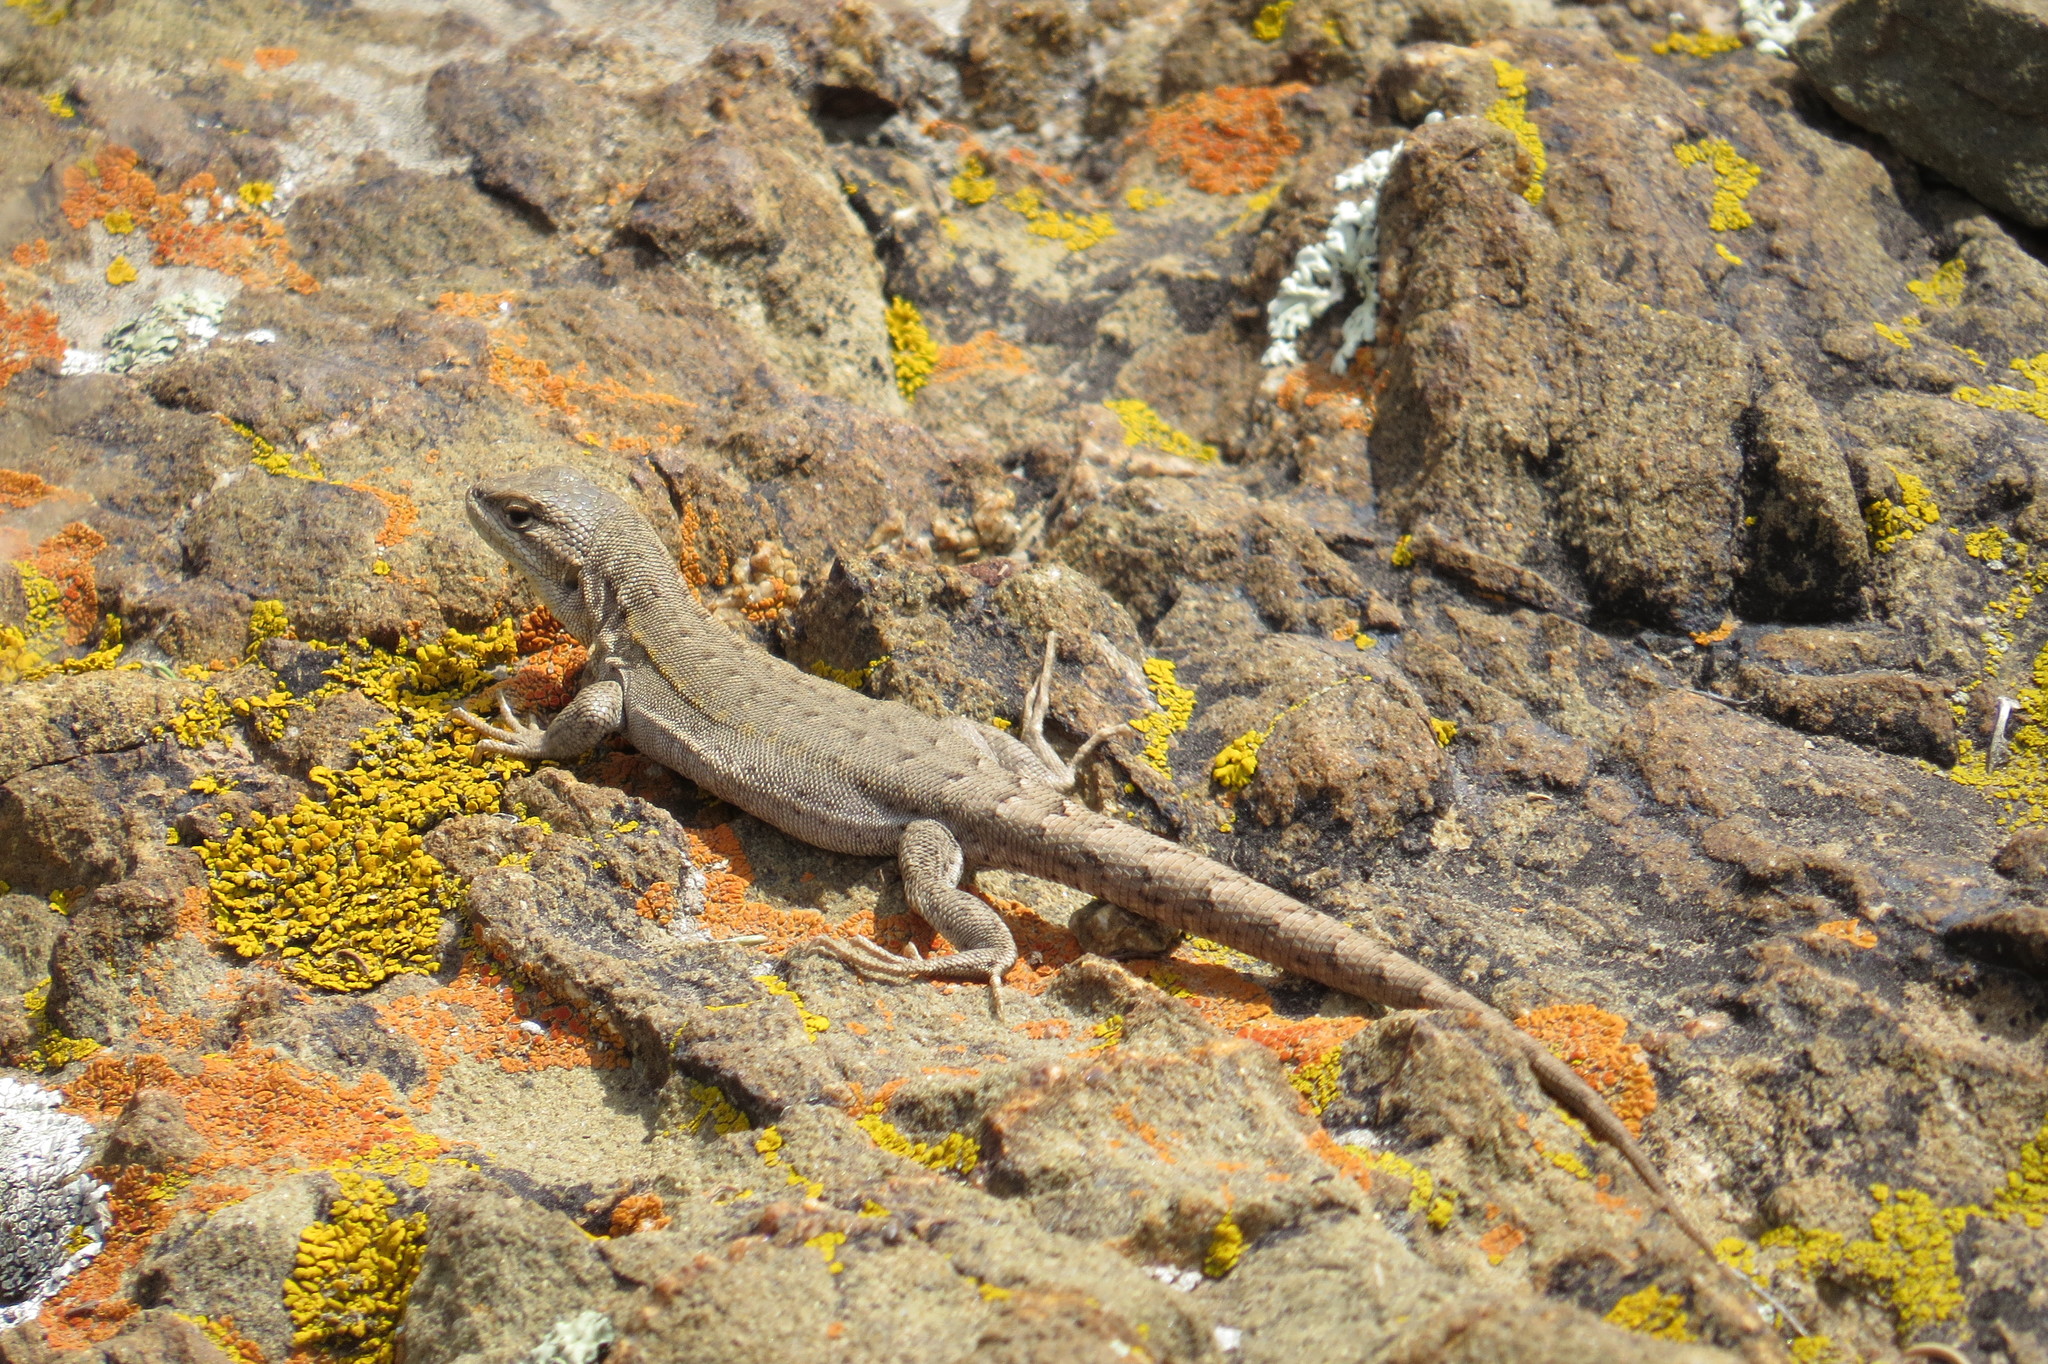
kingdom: Animalia
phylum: Chordata
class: Squamata
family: Liolaemidae
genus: Liolaemus
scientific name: Liolaemus uspallatensis
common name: Macola's tree iguana
